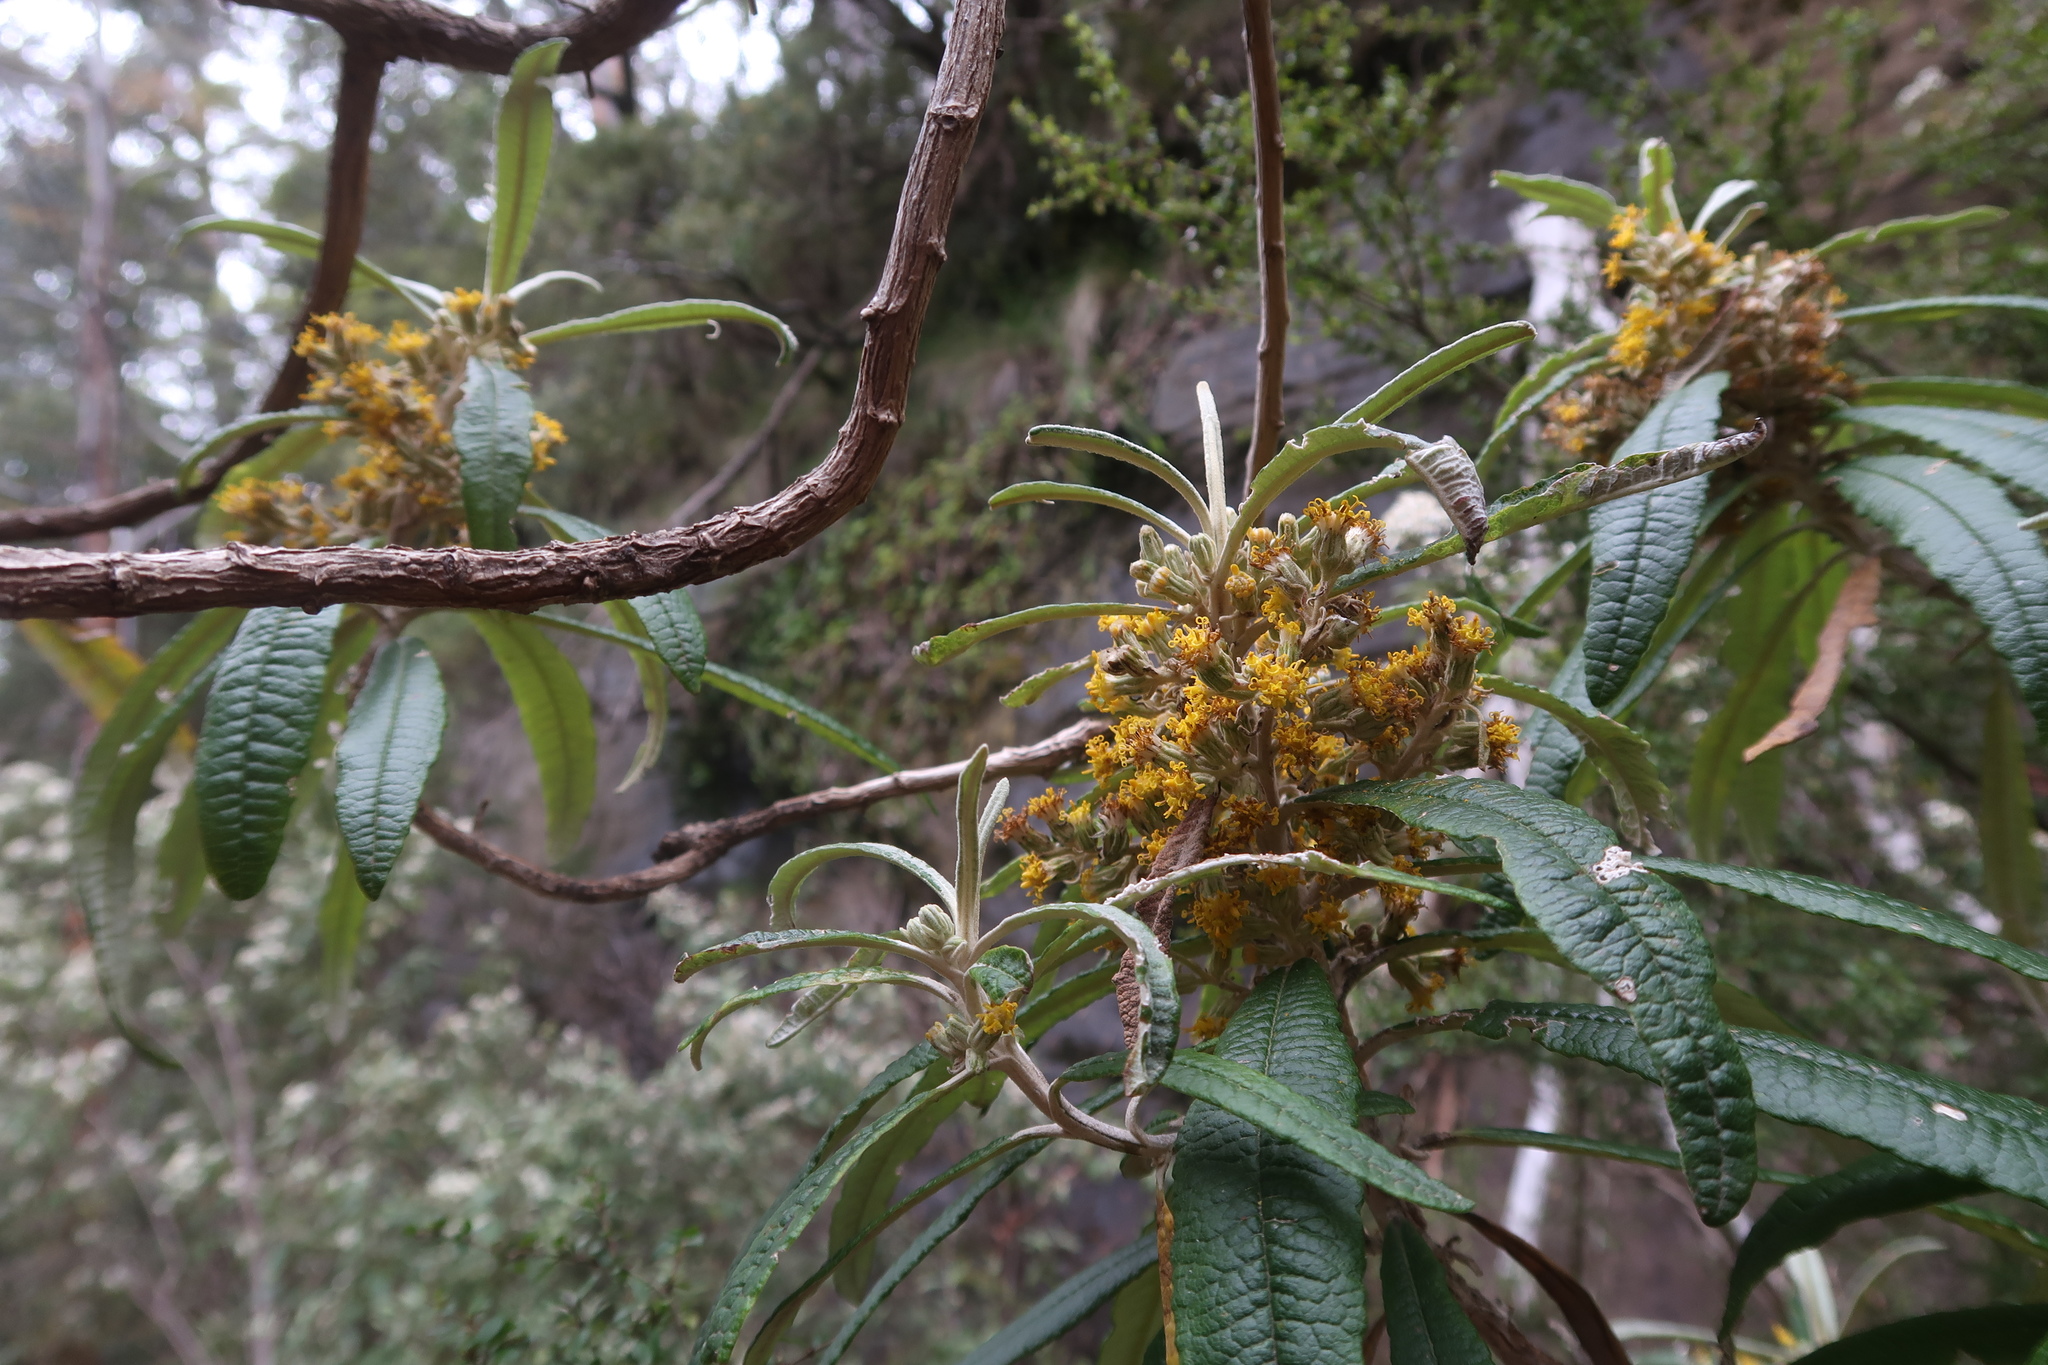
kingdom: Plantae
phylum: Tracheophyta
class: Magnoliopsida
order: Asterales
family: Asteraceae
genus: Bedfordia
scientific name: Bedfordia salicina
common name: Blanketleaf
